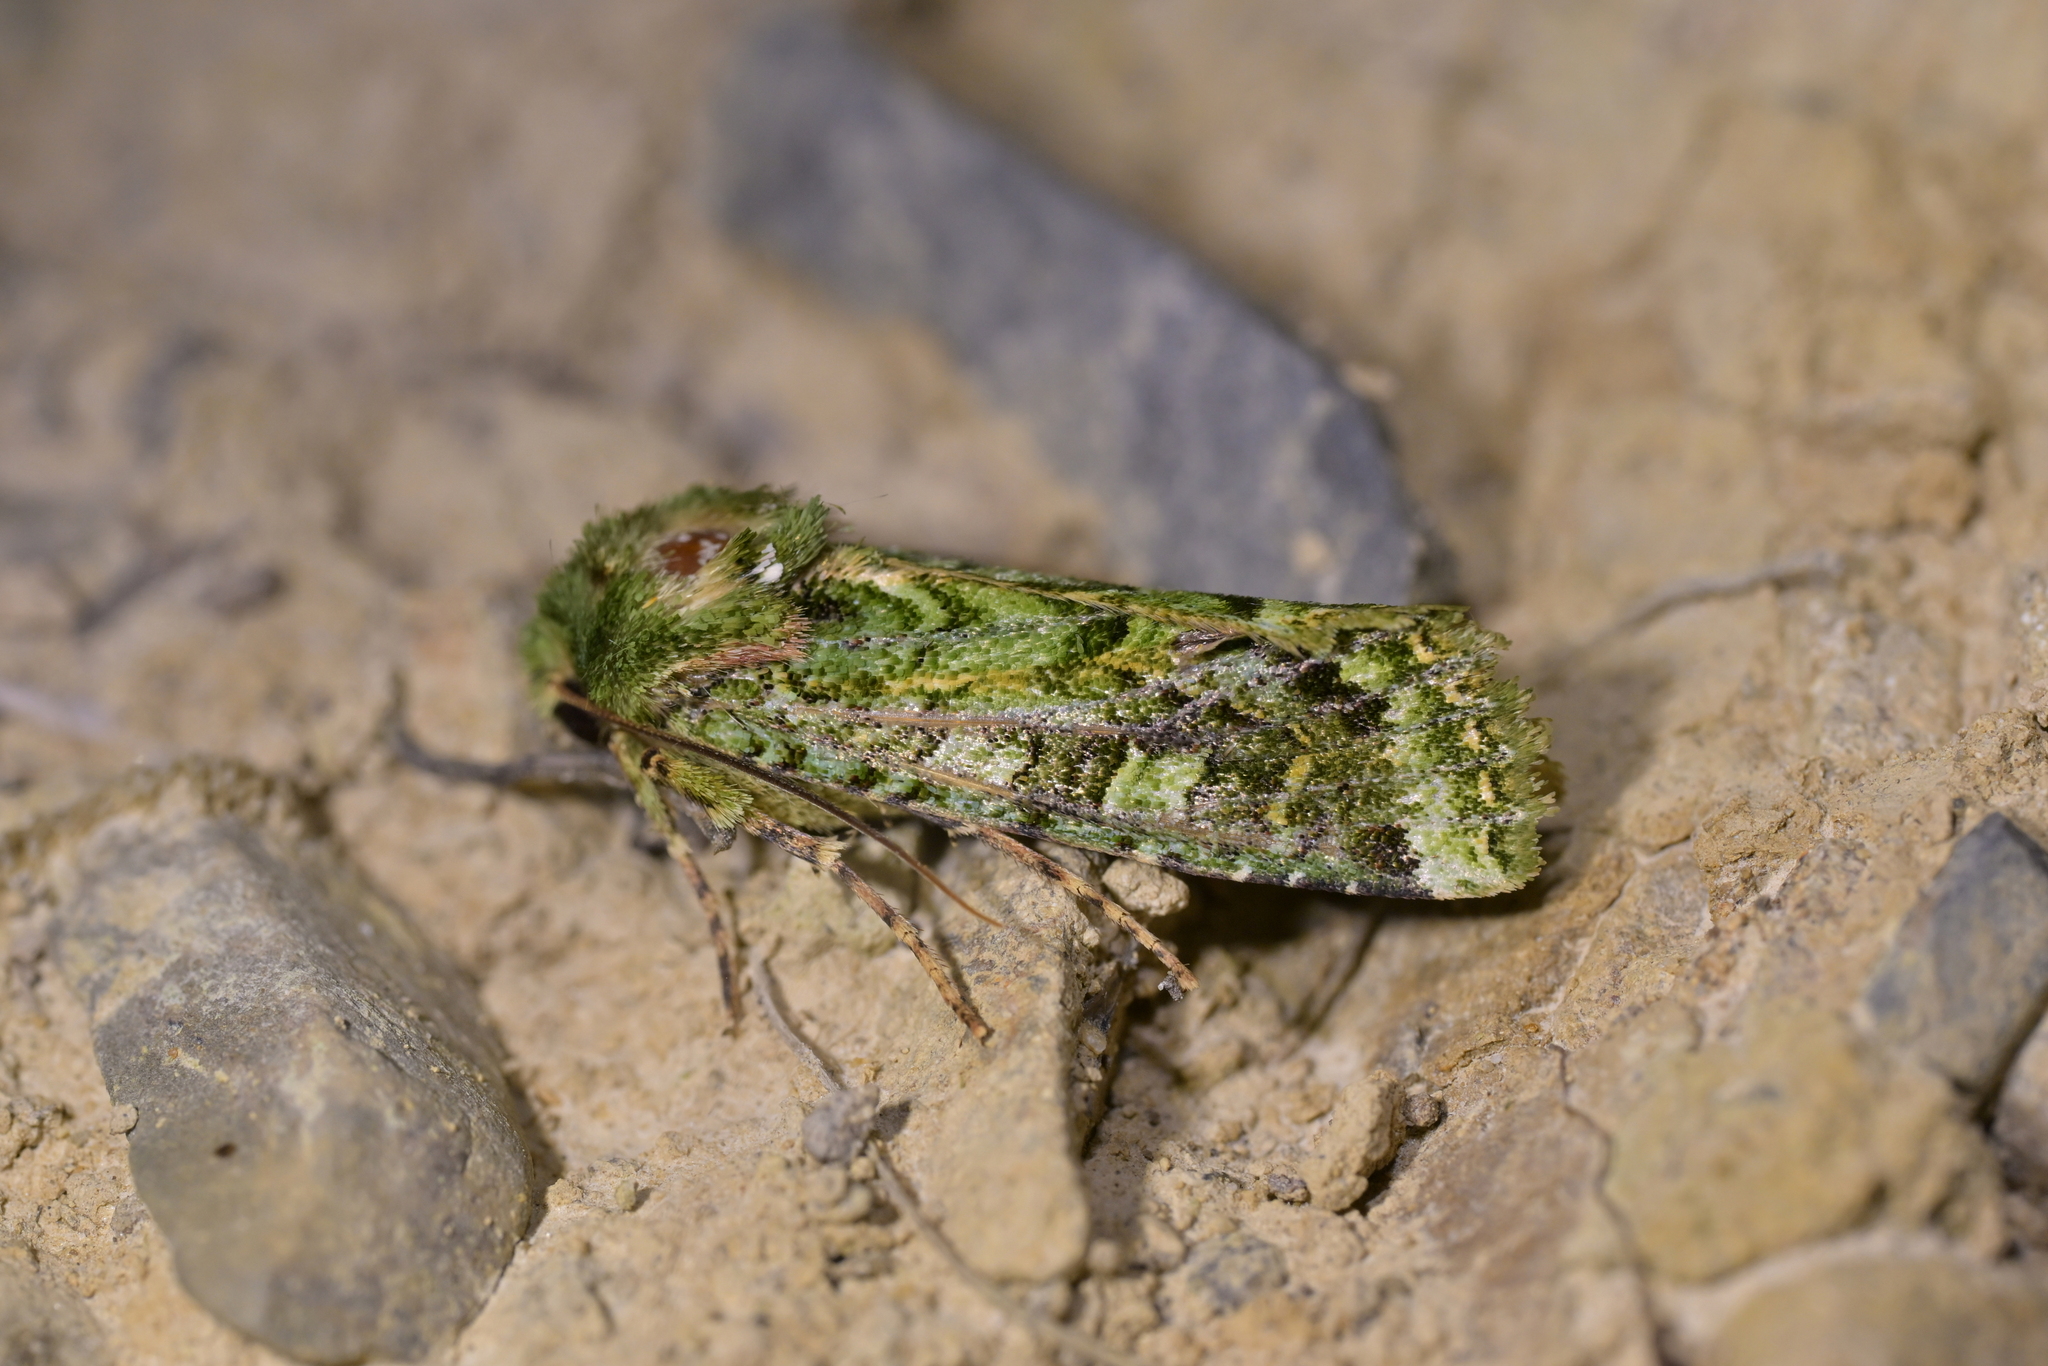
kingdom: Animalia
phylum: Arthropoda
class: Insecta
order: Lepidoptera
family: Noctuidae
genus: Feredayia
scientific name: Feredayia grammosa
